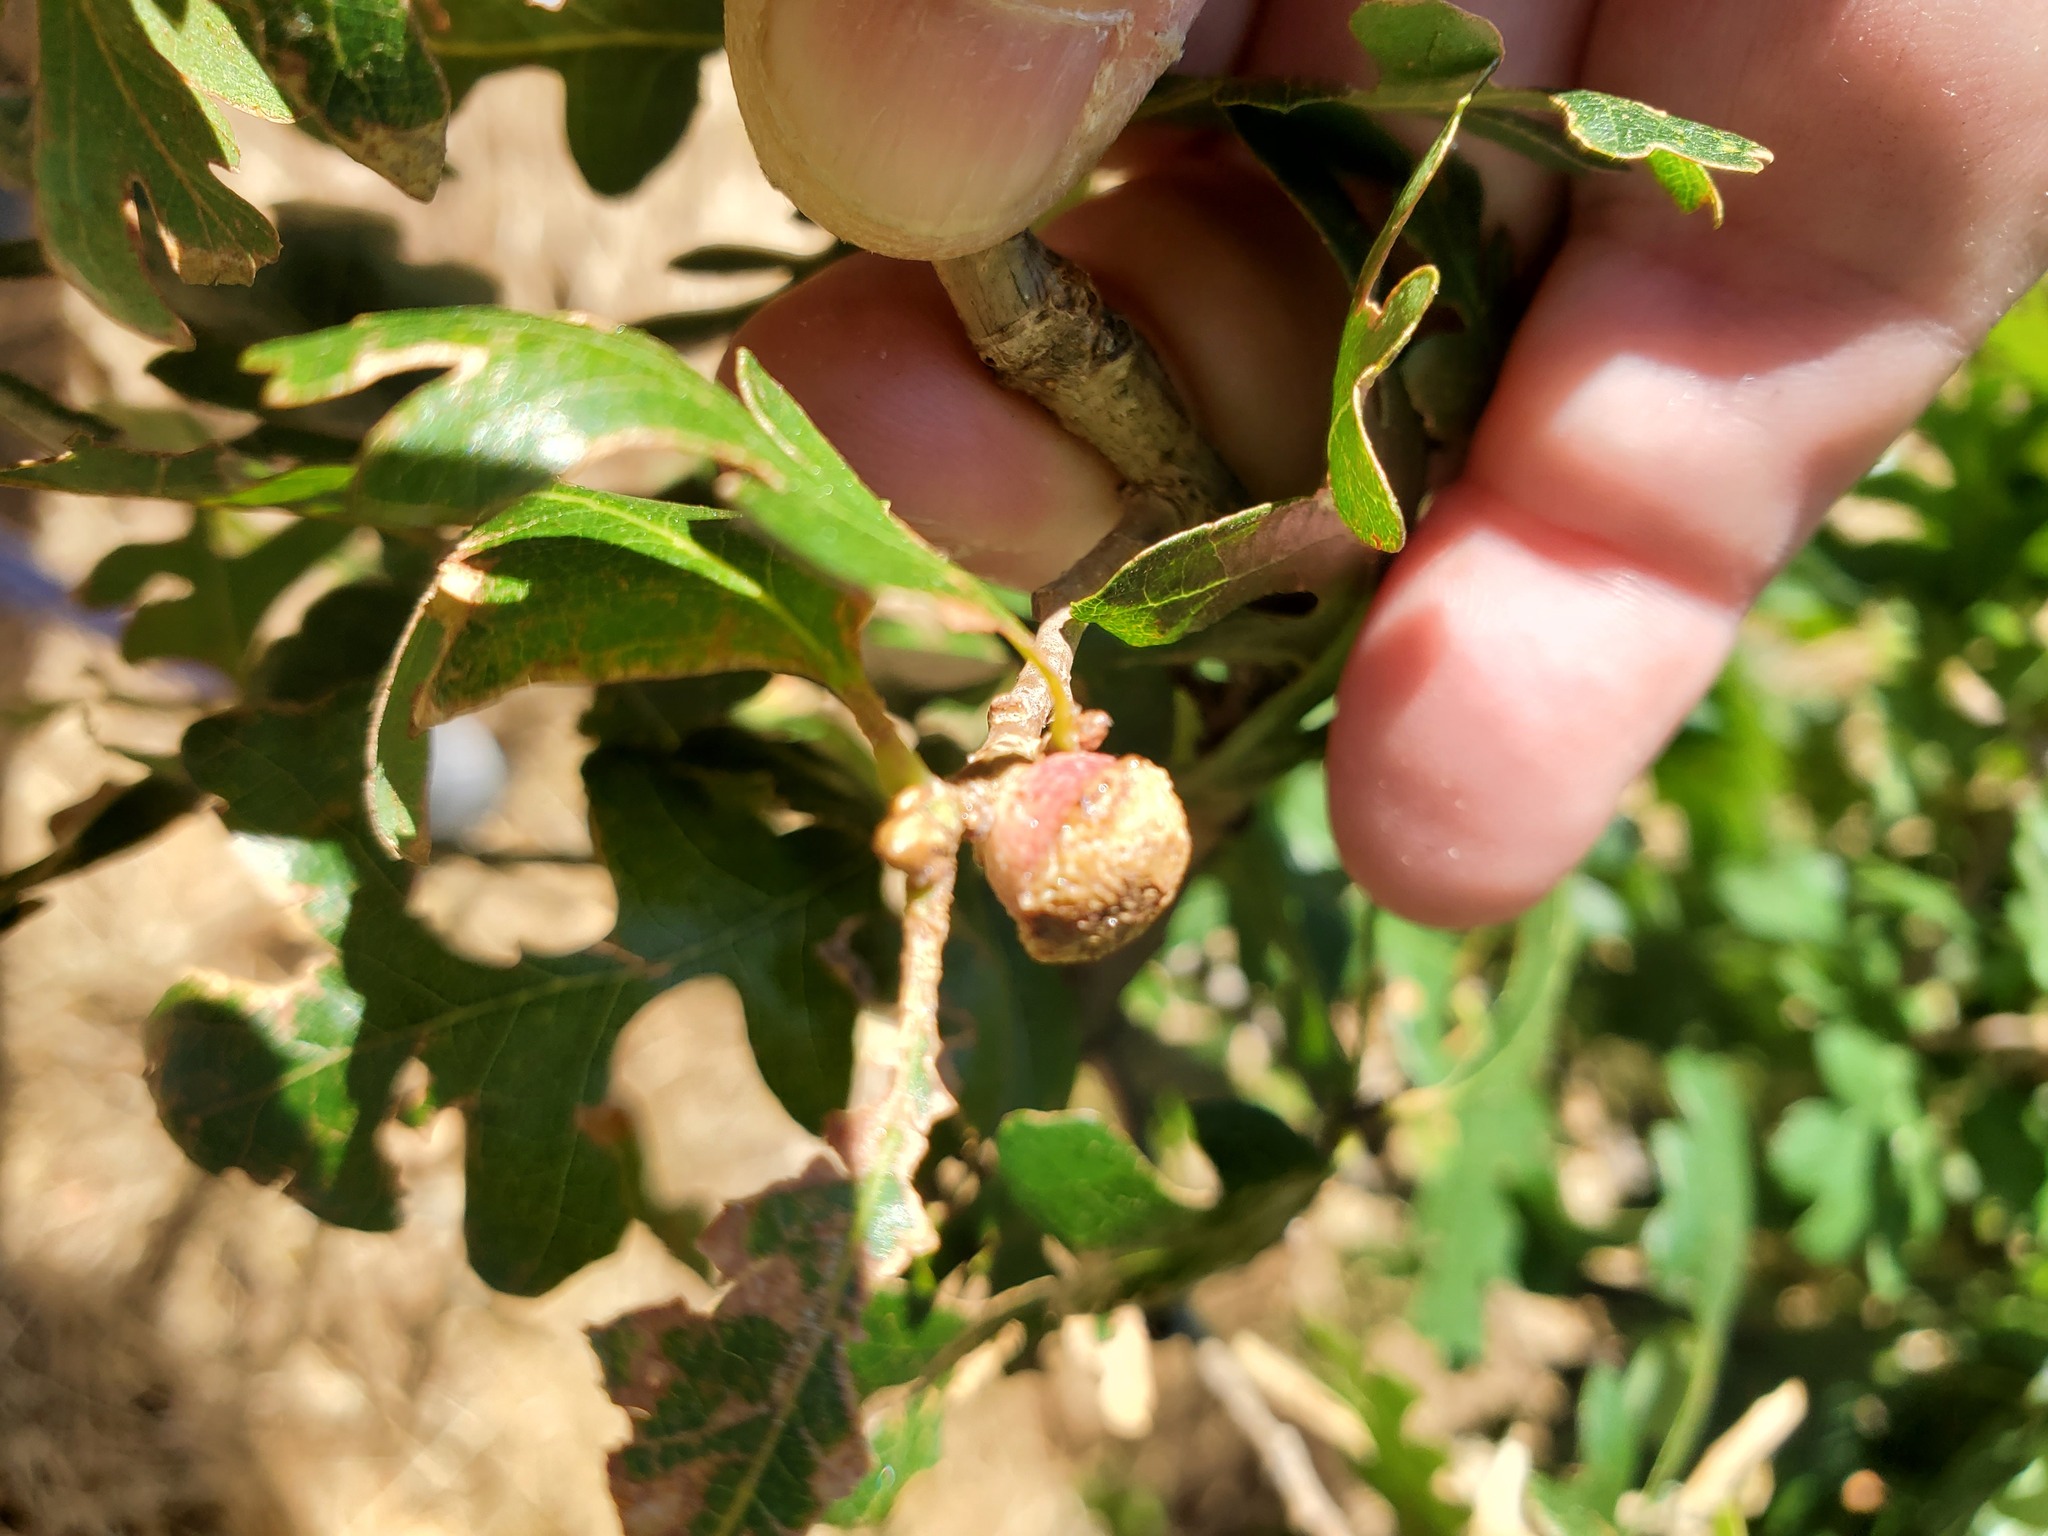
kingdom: Animalia
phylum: Arthropoda
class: Insecta
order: Hymenoptera
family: Cynipidae
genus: Disholcaspis
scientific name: Disholcaspis
